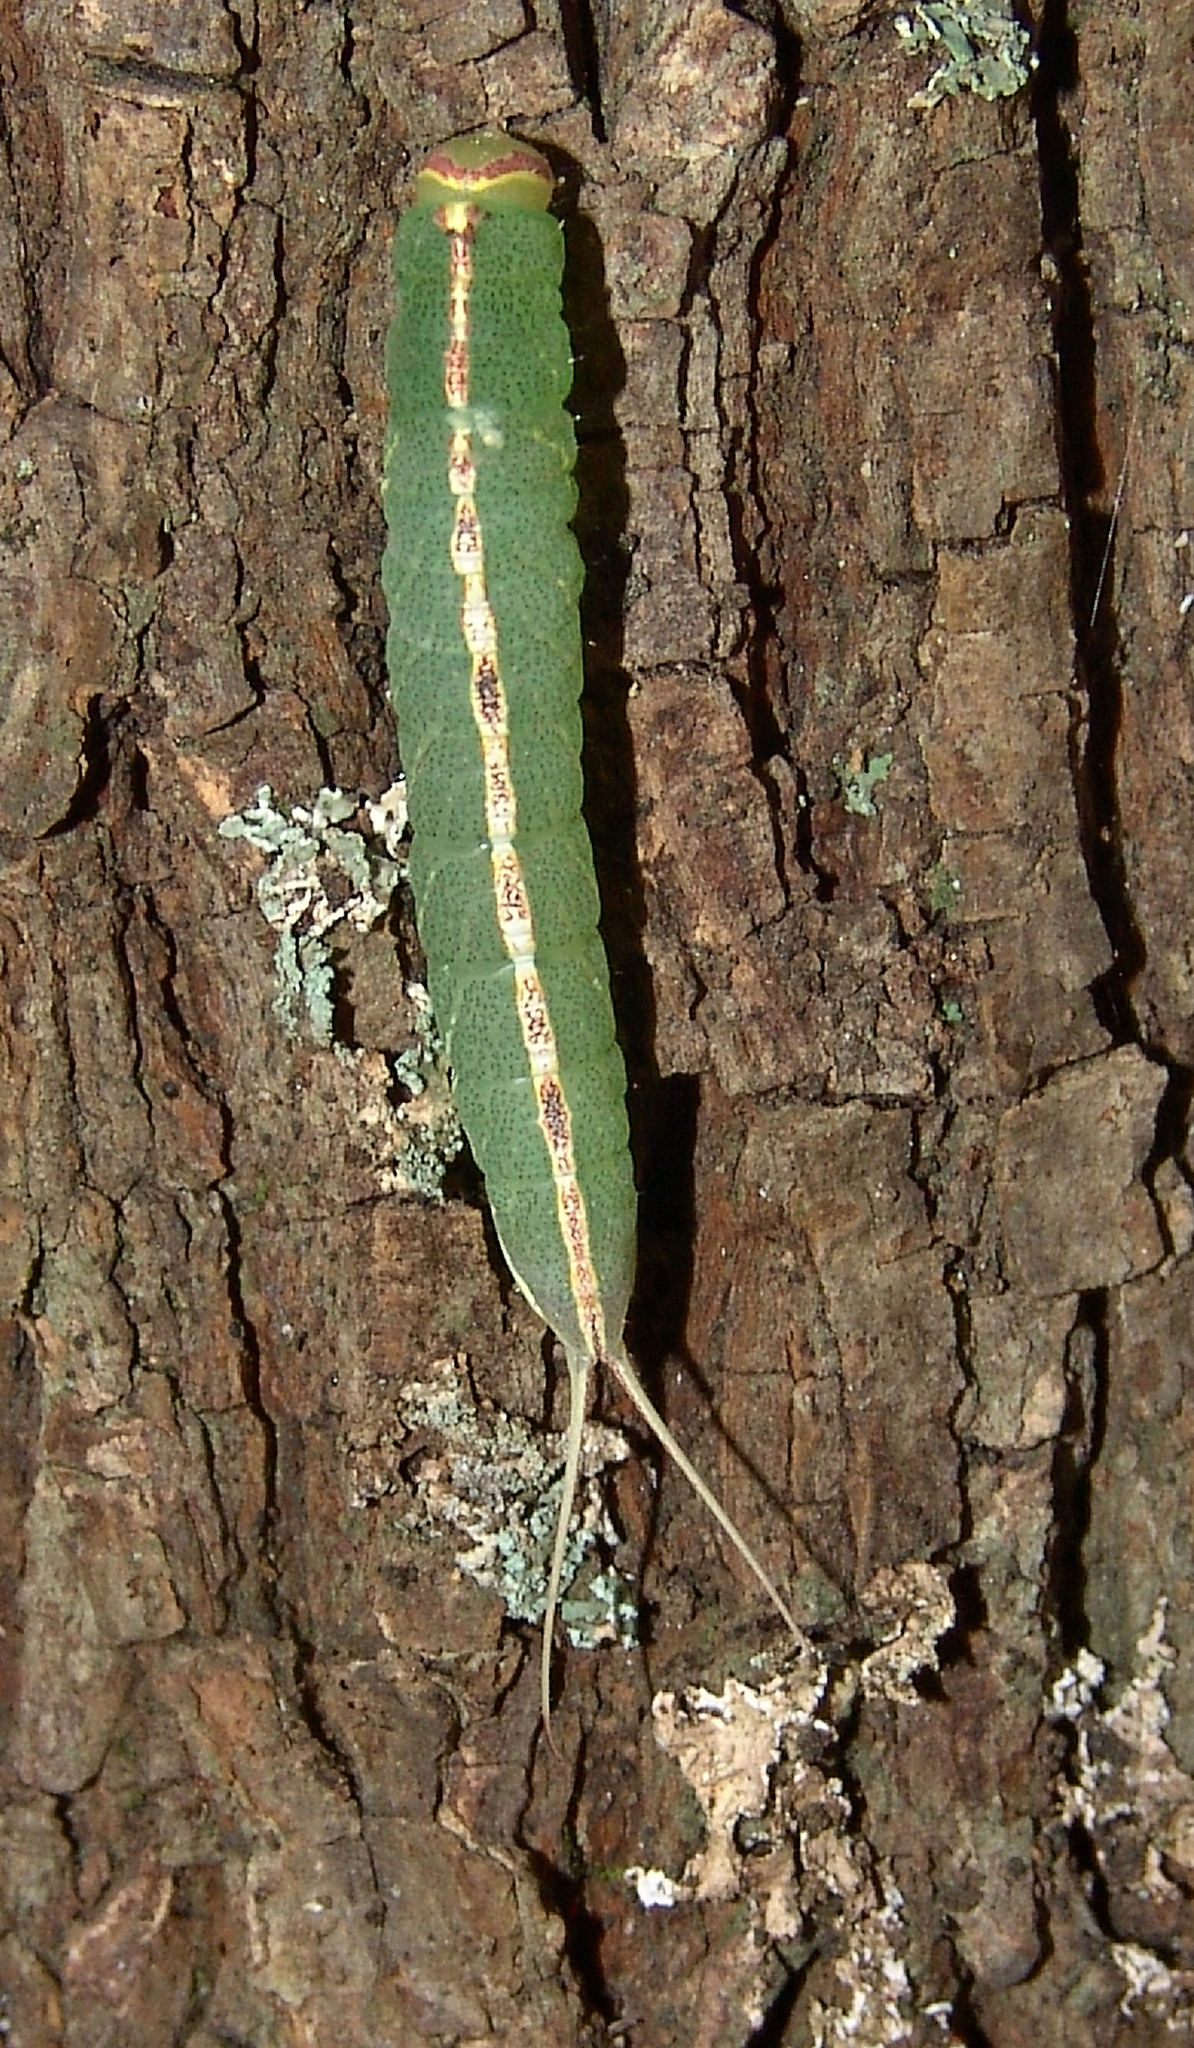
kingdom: Animalia
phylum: Arthropoda
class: Insecta
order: Lepidoptera
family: Notodontidae
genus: Macrurocampa
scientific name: Macrurocampa marthesia
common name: Mottled prominent
